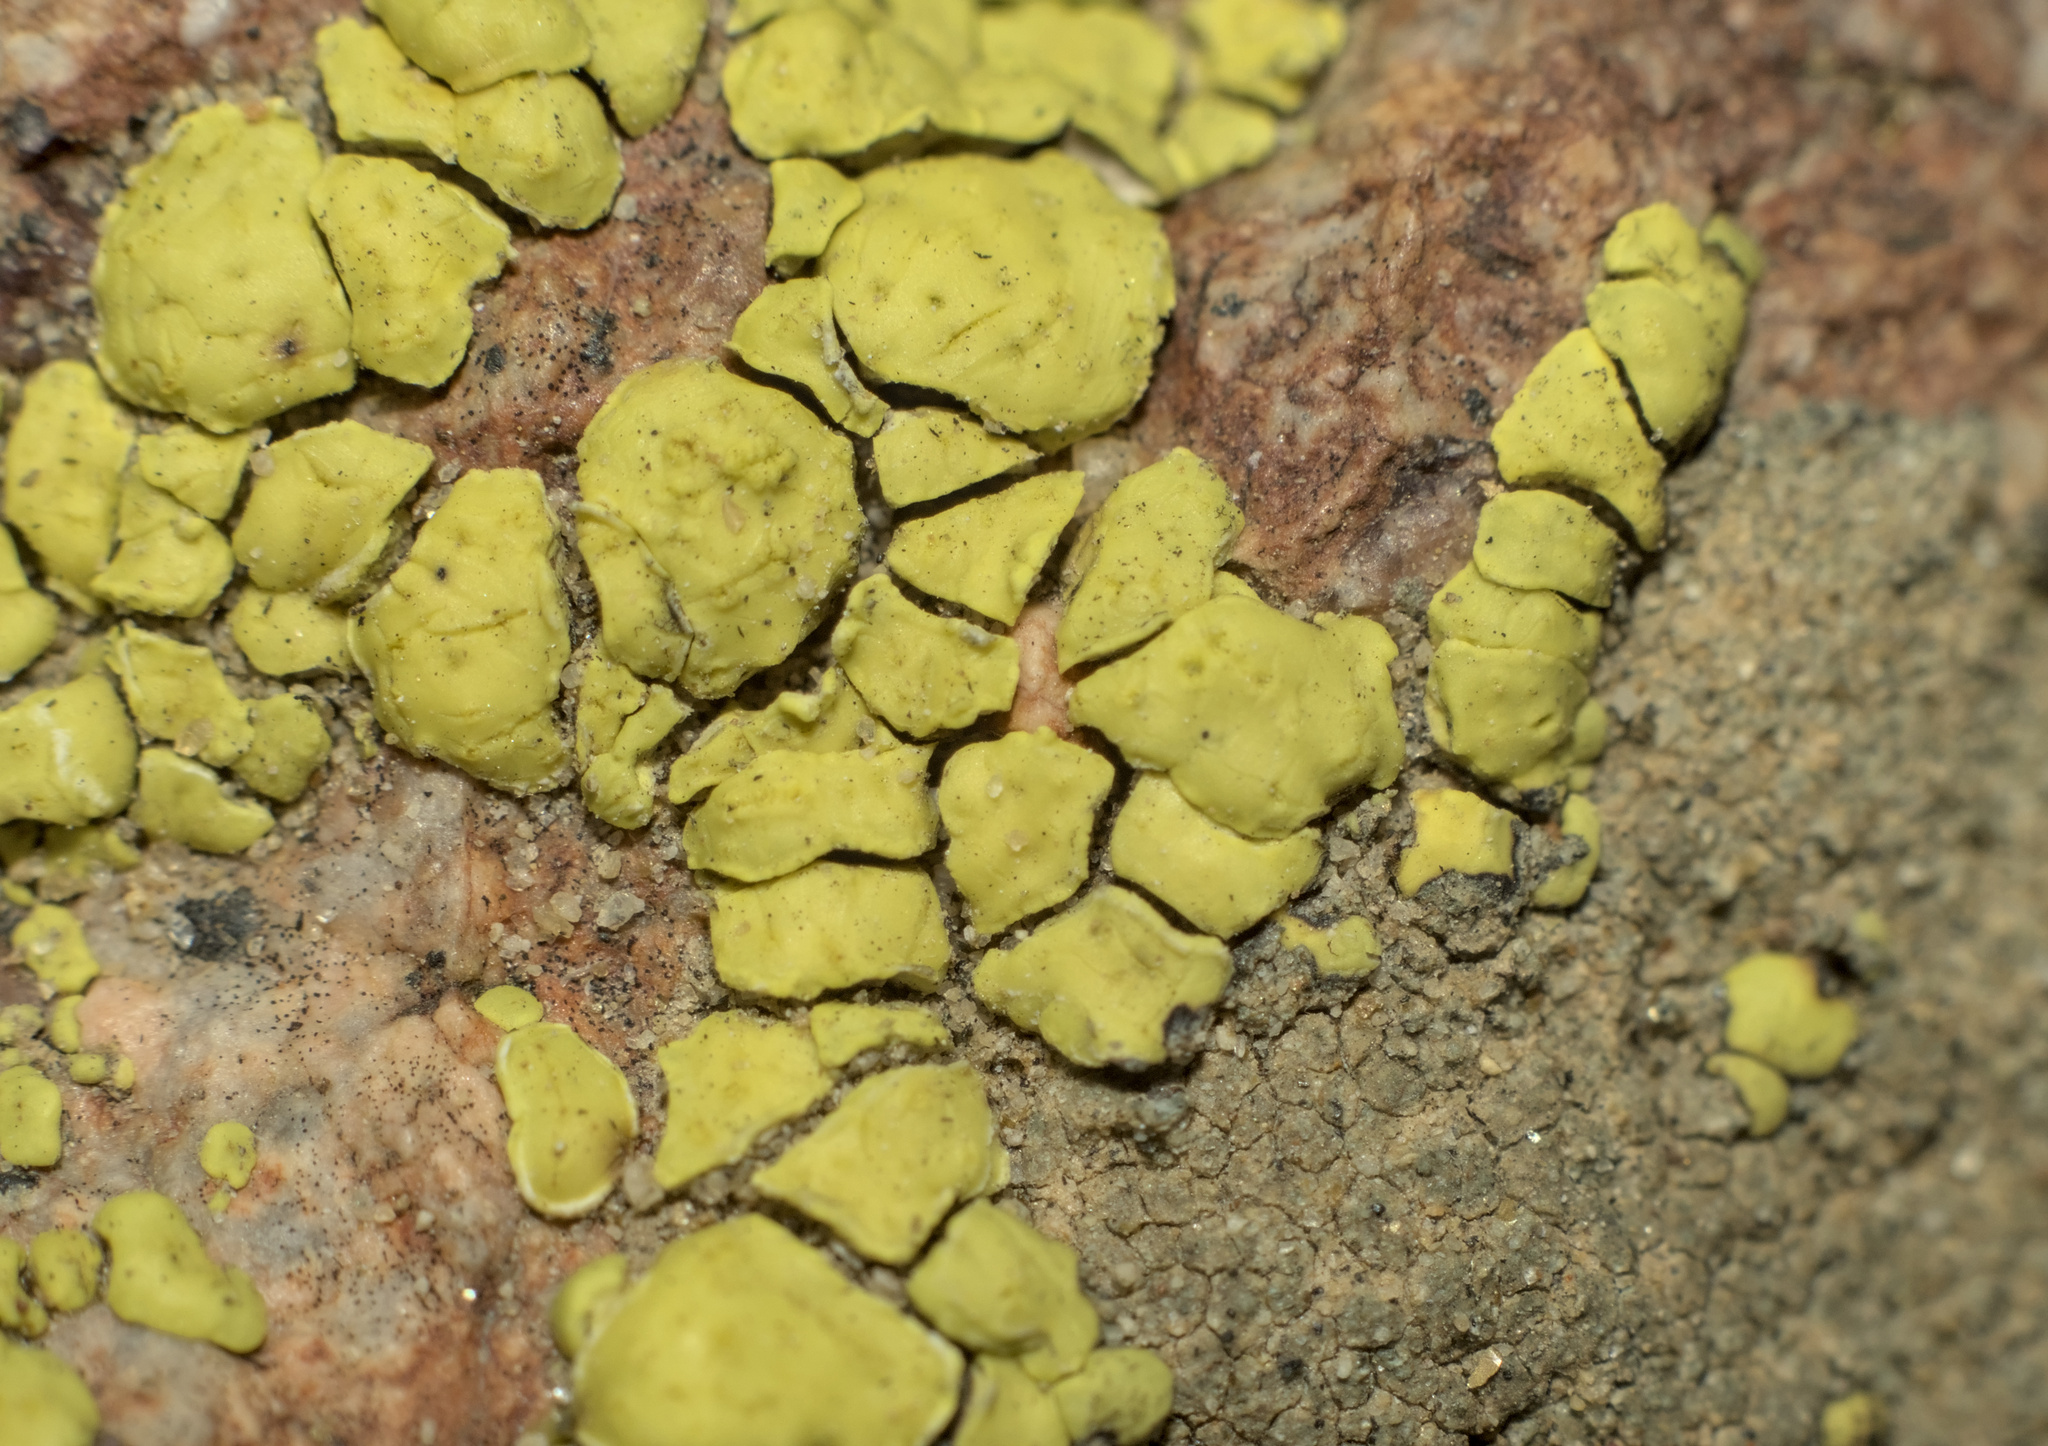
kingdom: Fungi
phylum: Ascomycota
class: Lecanoromycetes
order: Acarosporales
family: Acarosporaceae
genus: Acarospora
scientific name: Acarospora robiniae
